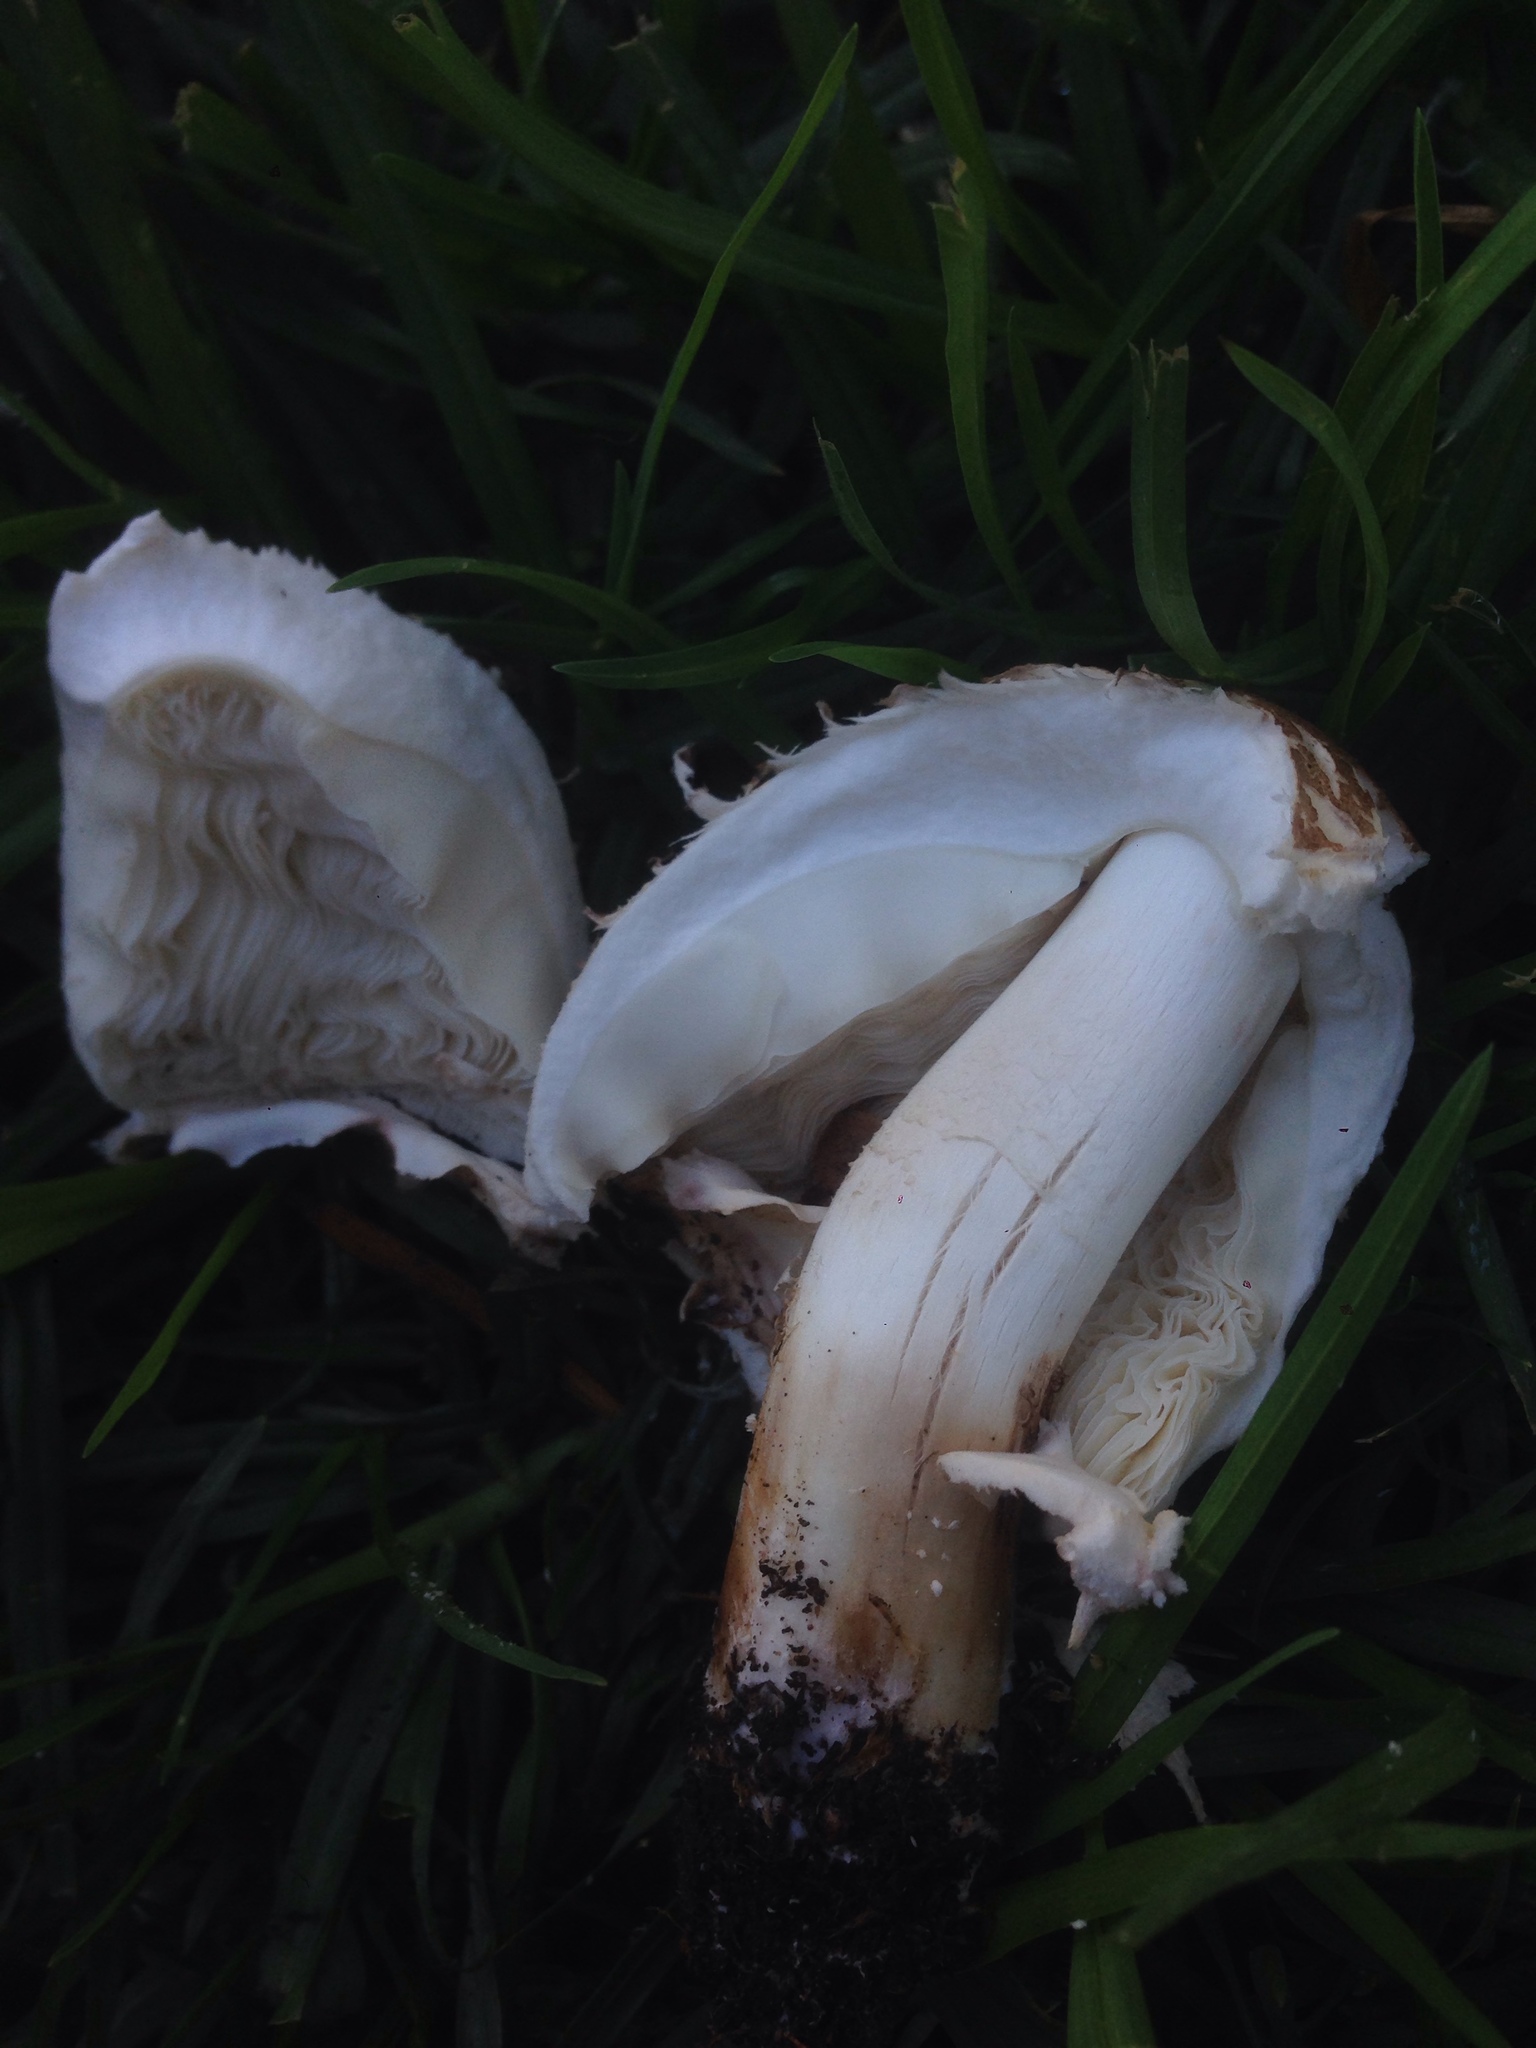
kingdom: Fungi
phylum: Basidiomycota
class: Agaricomycetes
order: Agaricales
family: Agaricaceae
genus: Chlorophyllum
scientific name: Chlorophyllum molybdites
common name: False parasol
